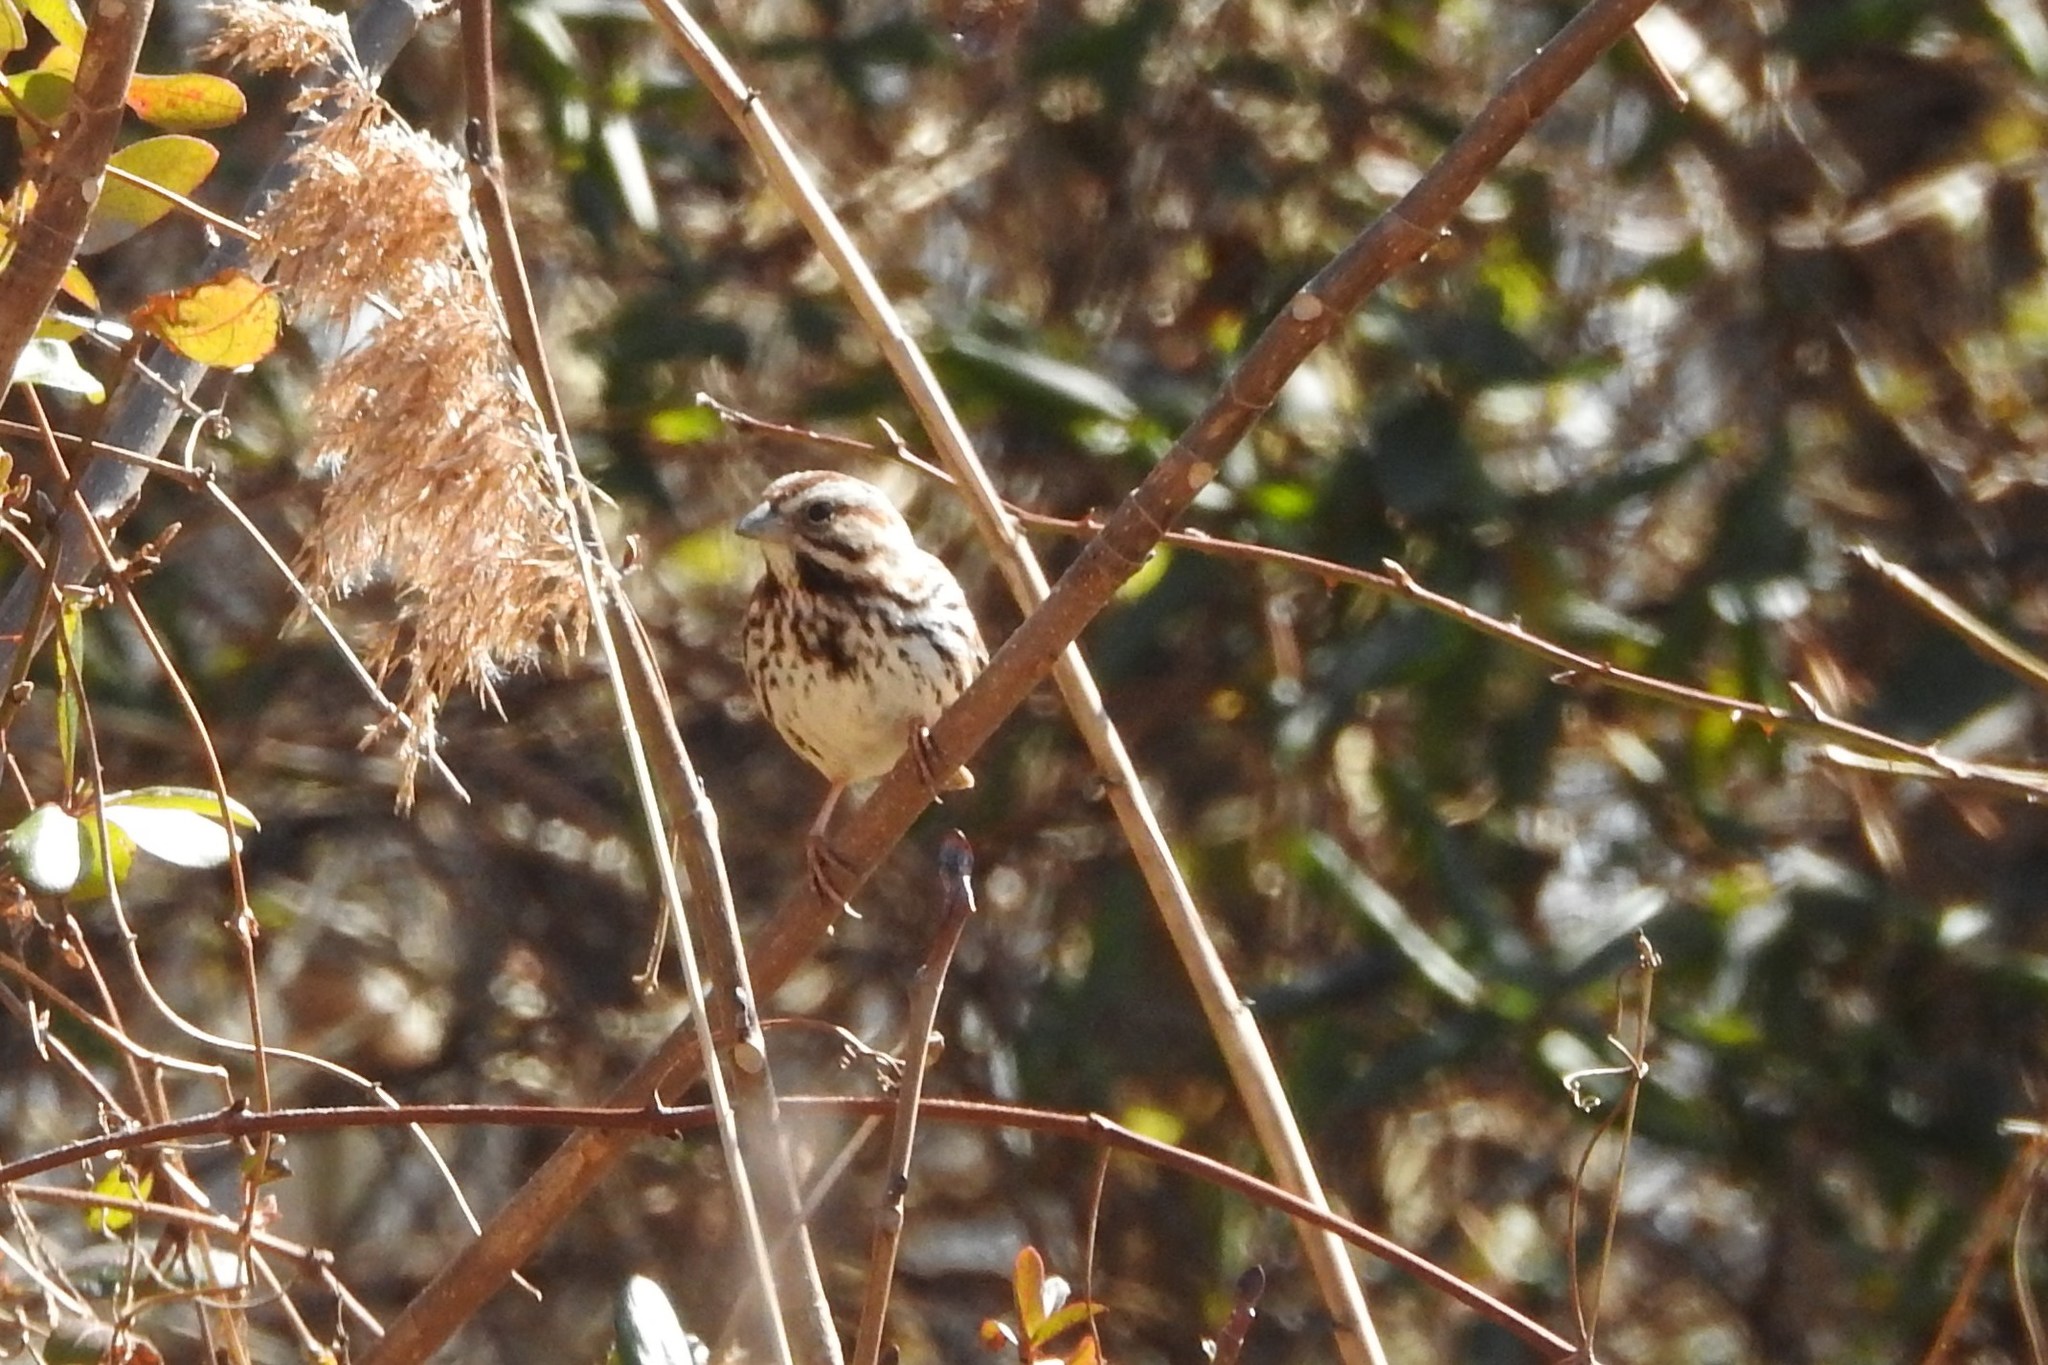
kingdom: Animalia
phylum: Chordata
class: Aves
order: Passeriformes
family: Passerellidae
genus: Melospiza
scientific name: Melospiza melodia
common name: Song sparrow
